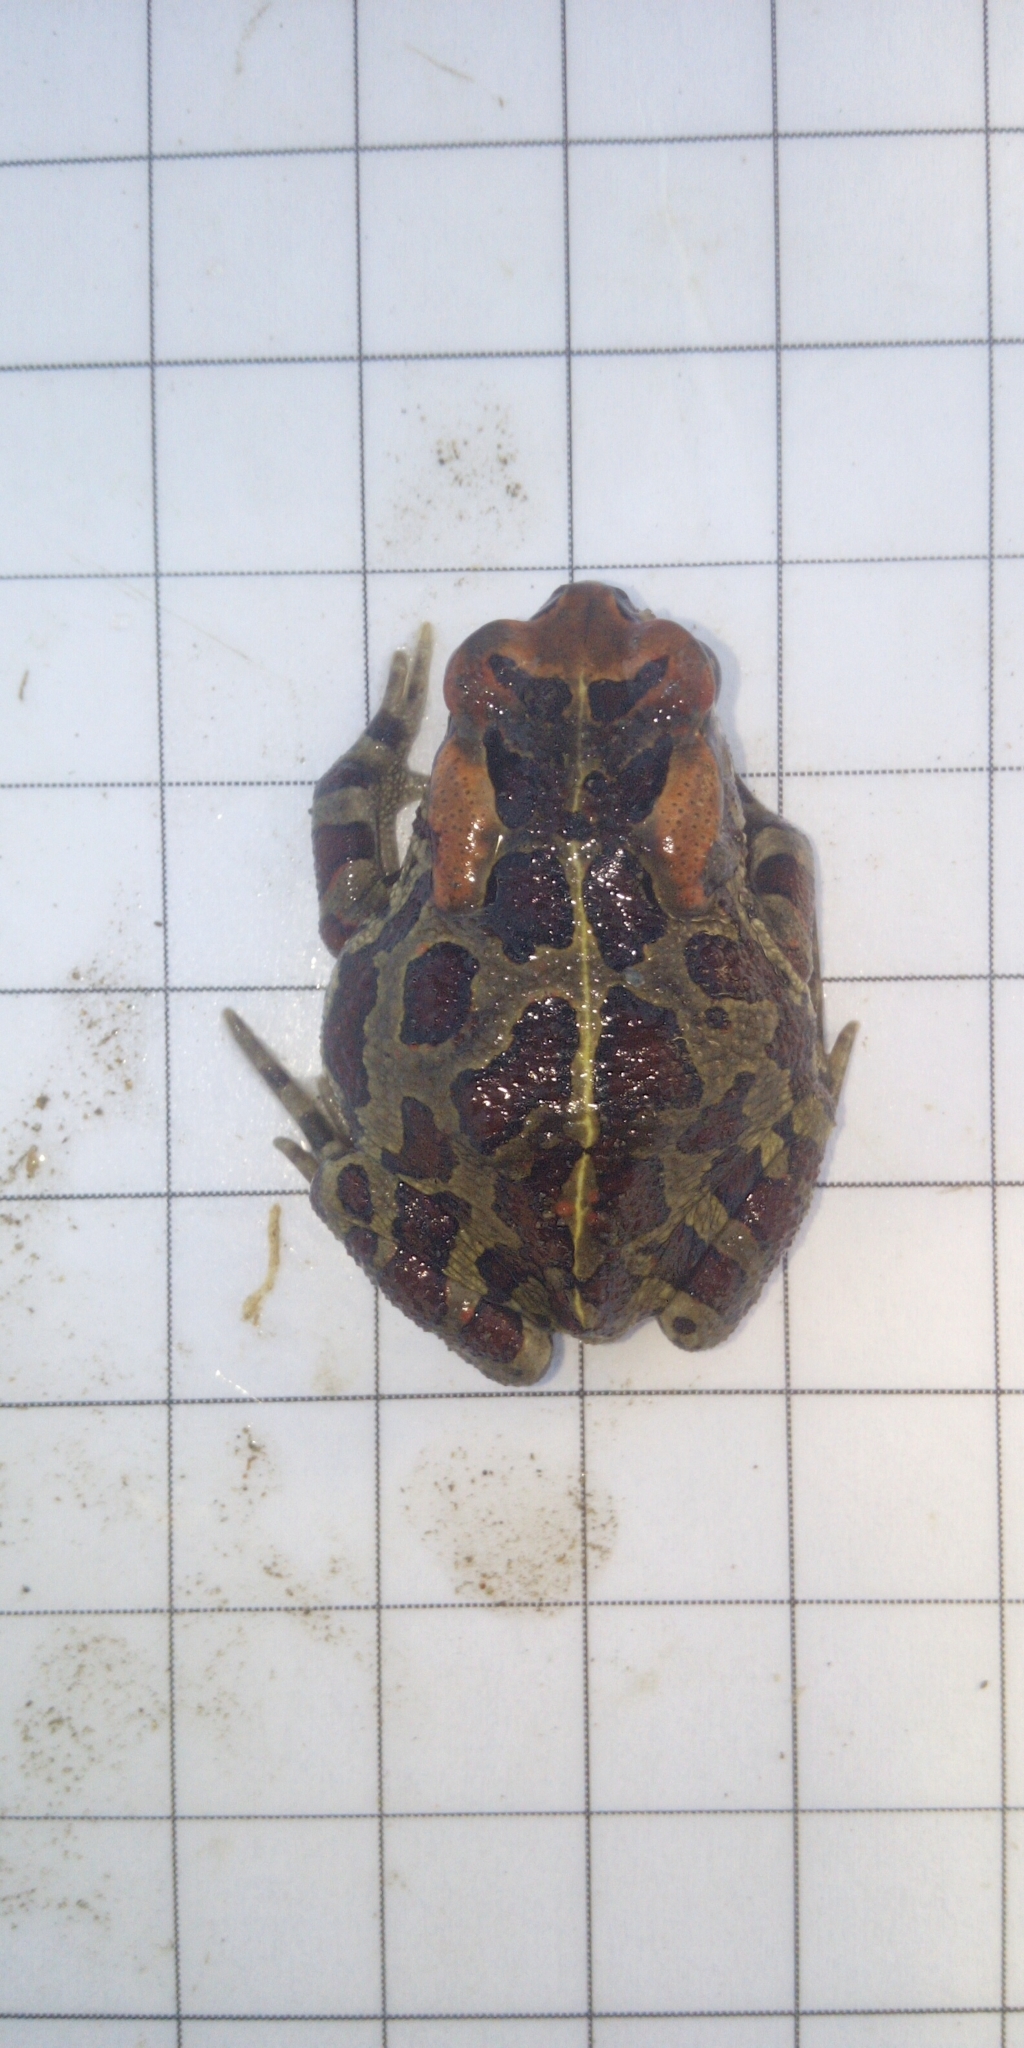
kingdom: Animalia
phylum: Chordata
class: Amphibia
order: Anura
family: Bufonidae
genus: Sclerophrys
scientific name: Sclerophrys pantherina
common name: Panther toad
